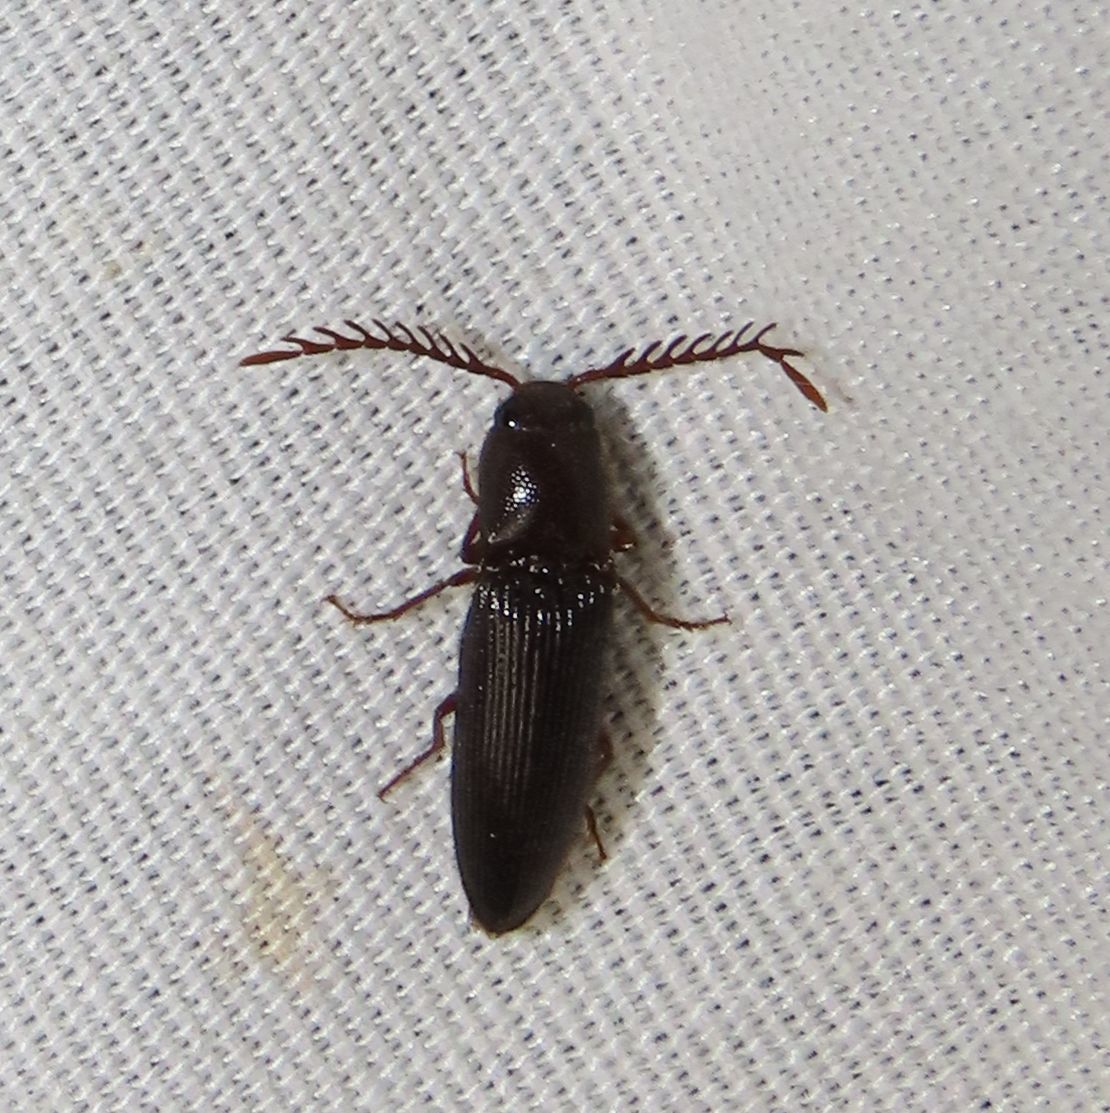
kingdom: Animalia
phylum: Arthropoda
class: Insecta
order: Coleoptera
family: Elateridae
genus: Dicrepidius
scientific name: Dicrepidius corvinus
